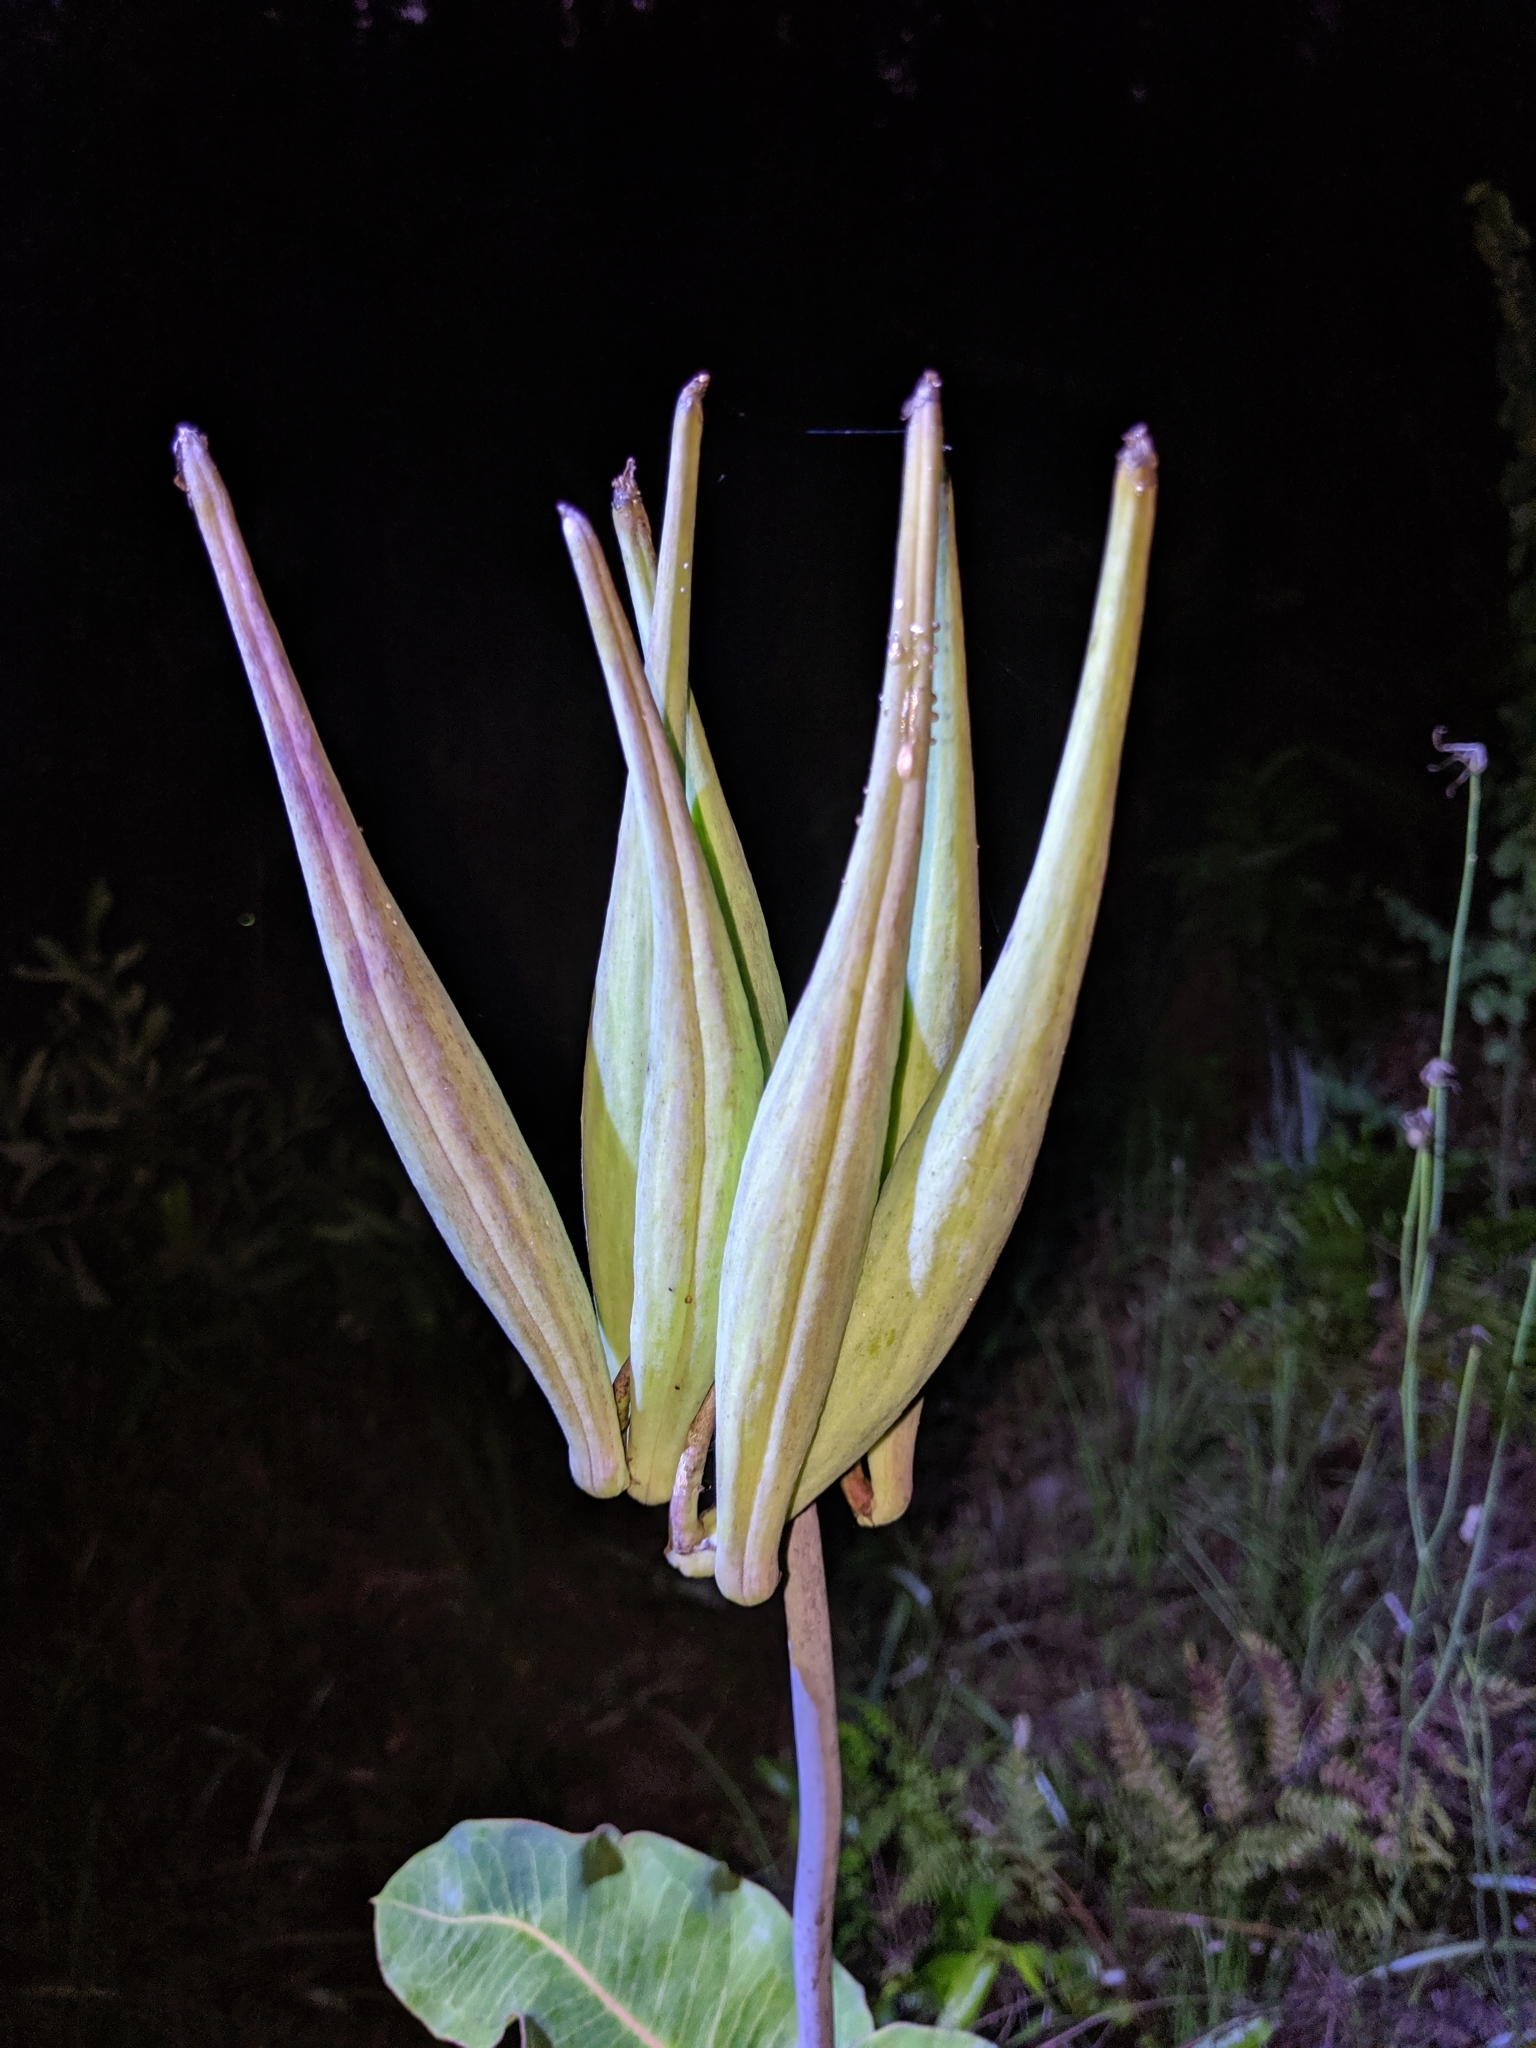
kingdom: Plantae
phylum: Tracheophyta
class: Magnoliopsida
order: Gentianales
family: Apocynaceae
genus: Asclepias
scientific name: Asclepias amplexicaulis
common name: Blunt-leaf milkweed
